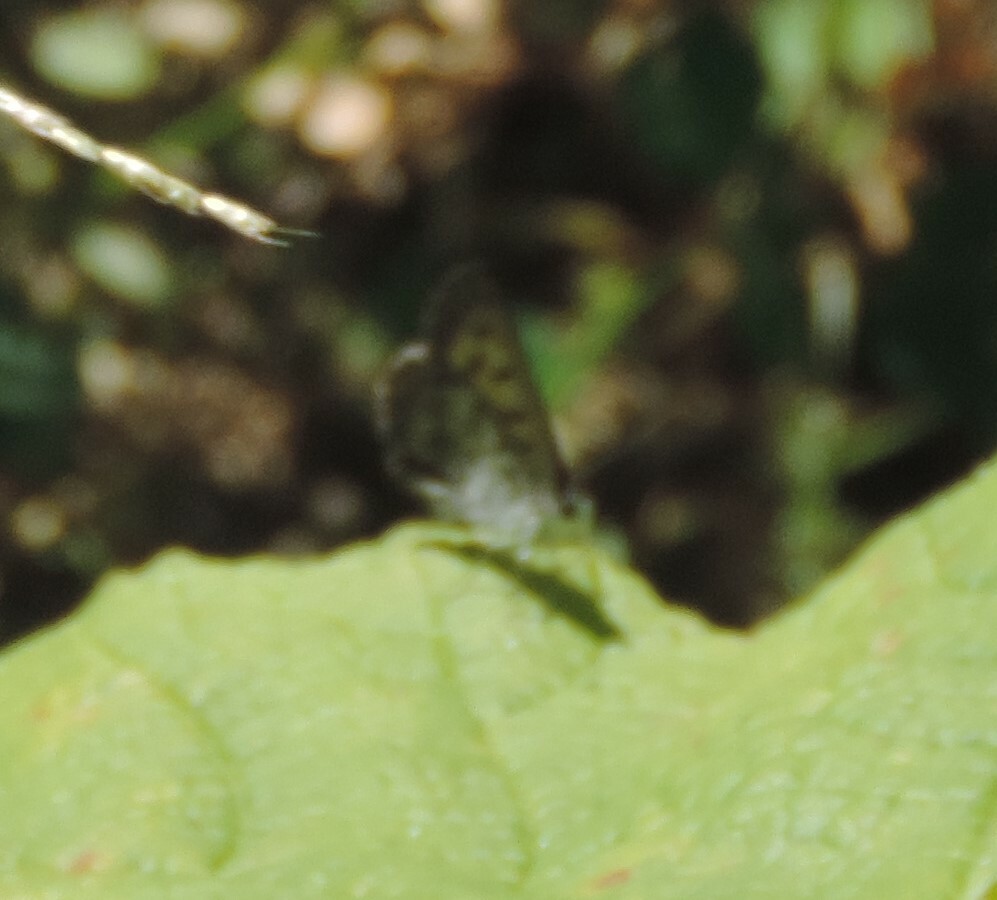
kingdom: Animalia
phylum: Arthropoda
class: Insecta
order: Lepidoptera
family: Lycaenidae
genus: Tharsalea
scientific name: Tharsalea mariposa
